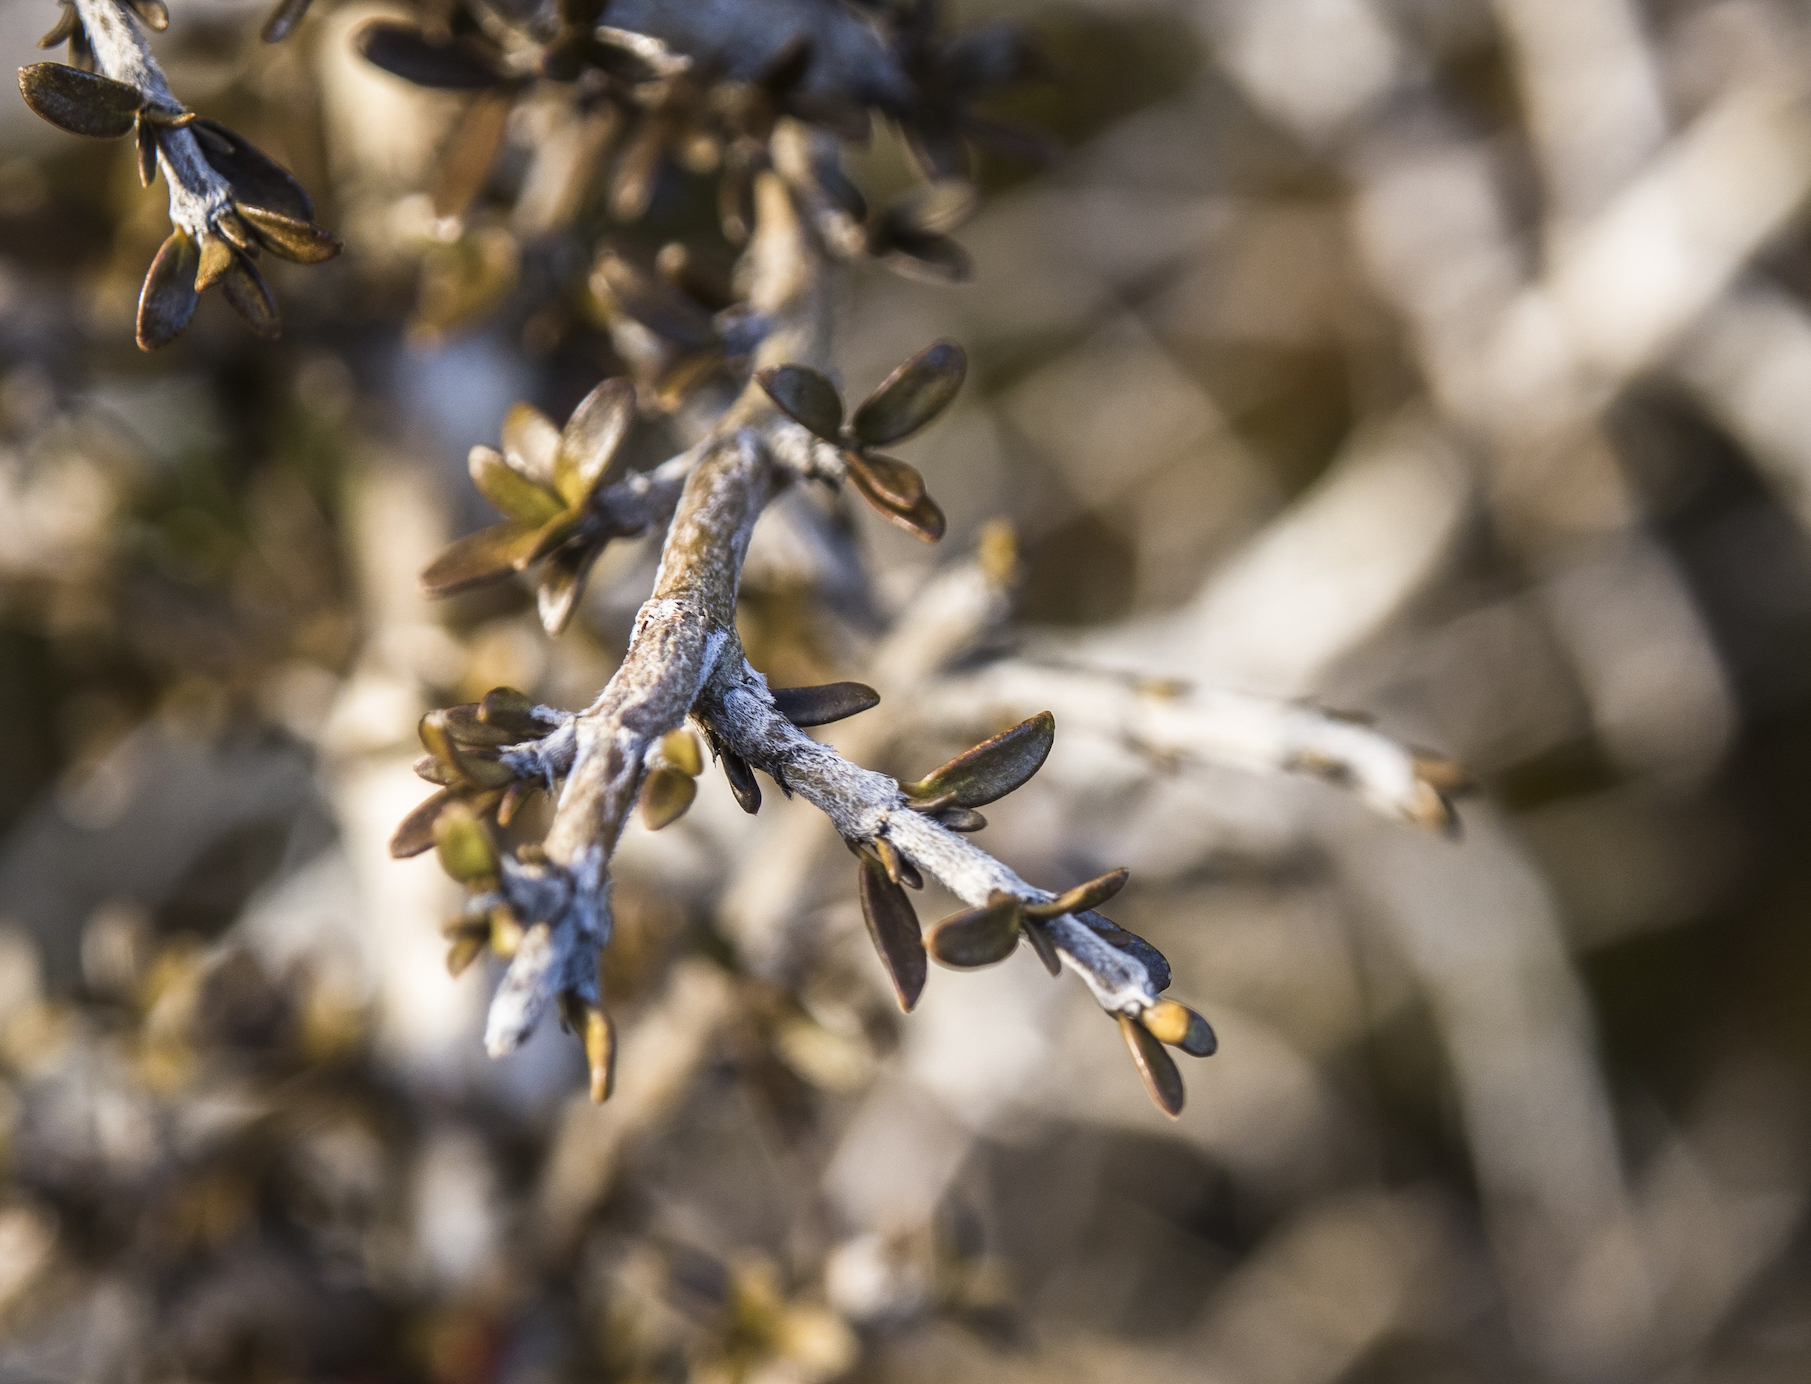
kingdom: Plantae
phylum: Tracheophyta
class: Magnoliopsida
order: Gentianales
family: Rubiaceae
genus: Coprosma
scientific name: Coprosma decurva
